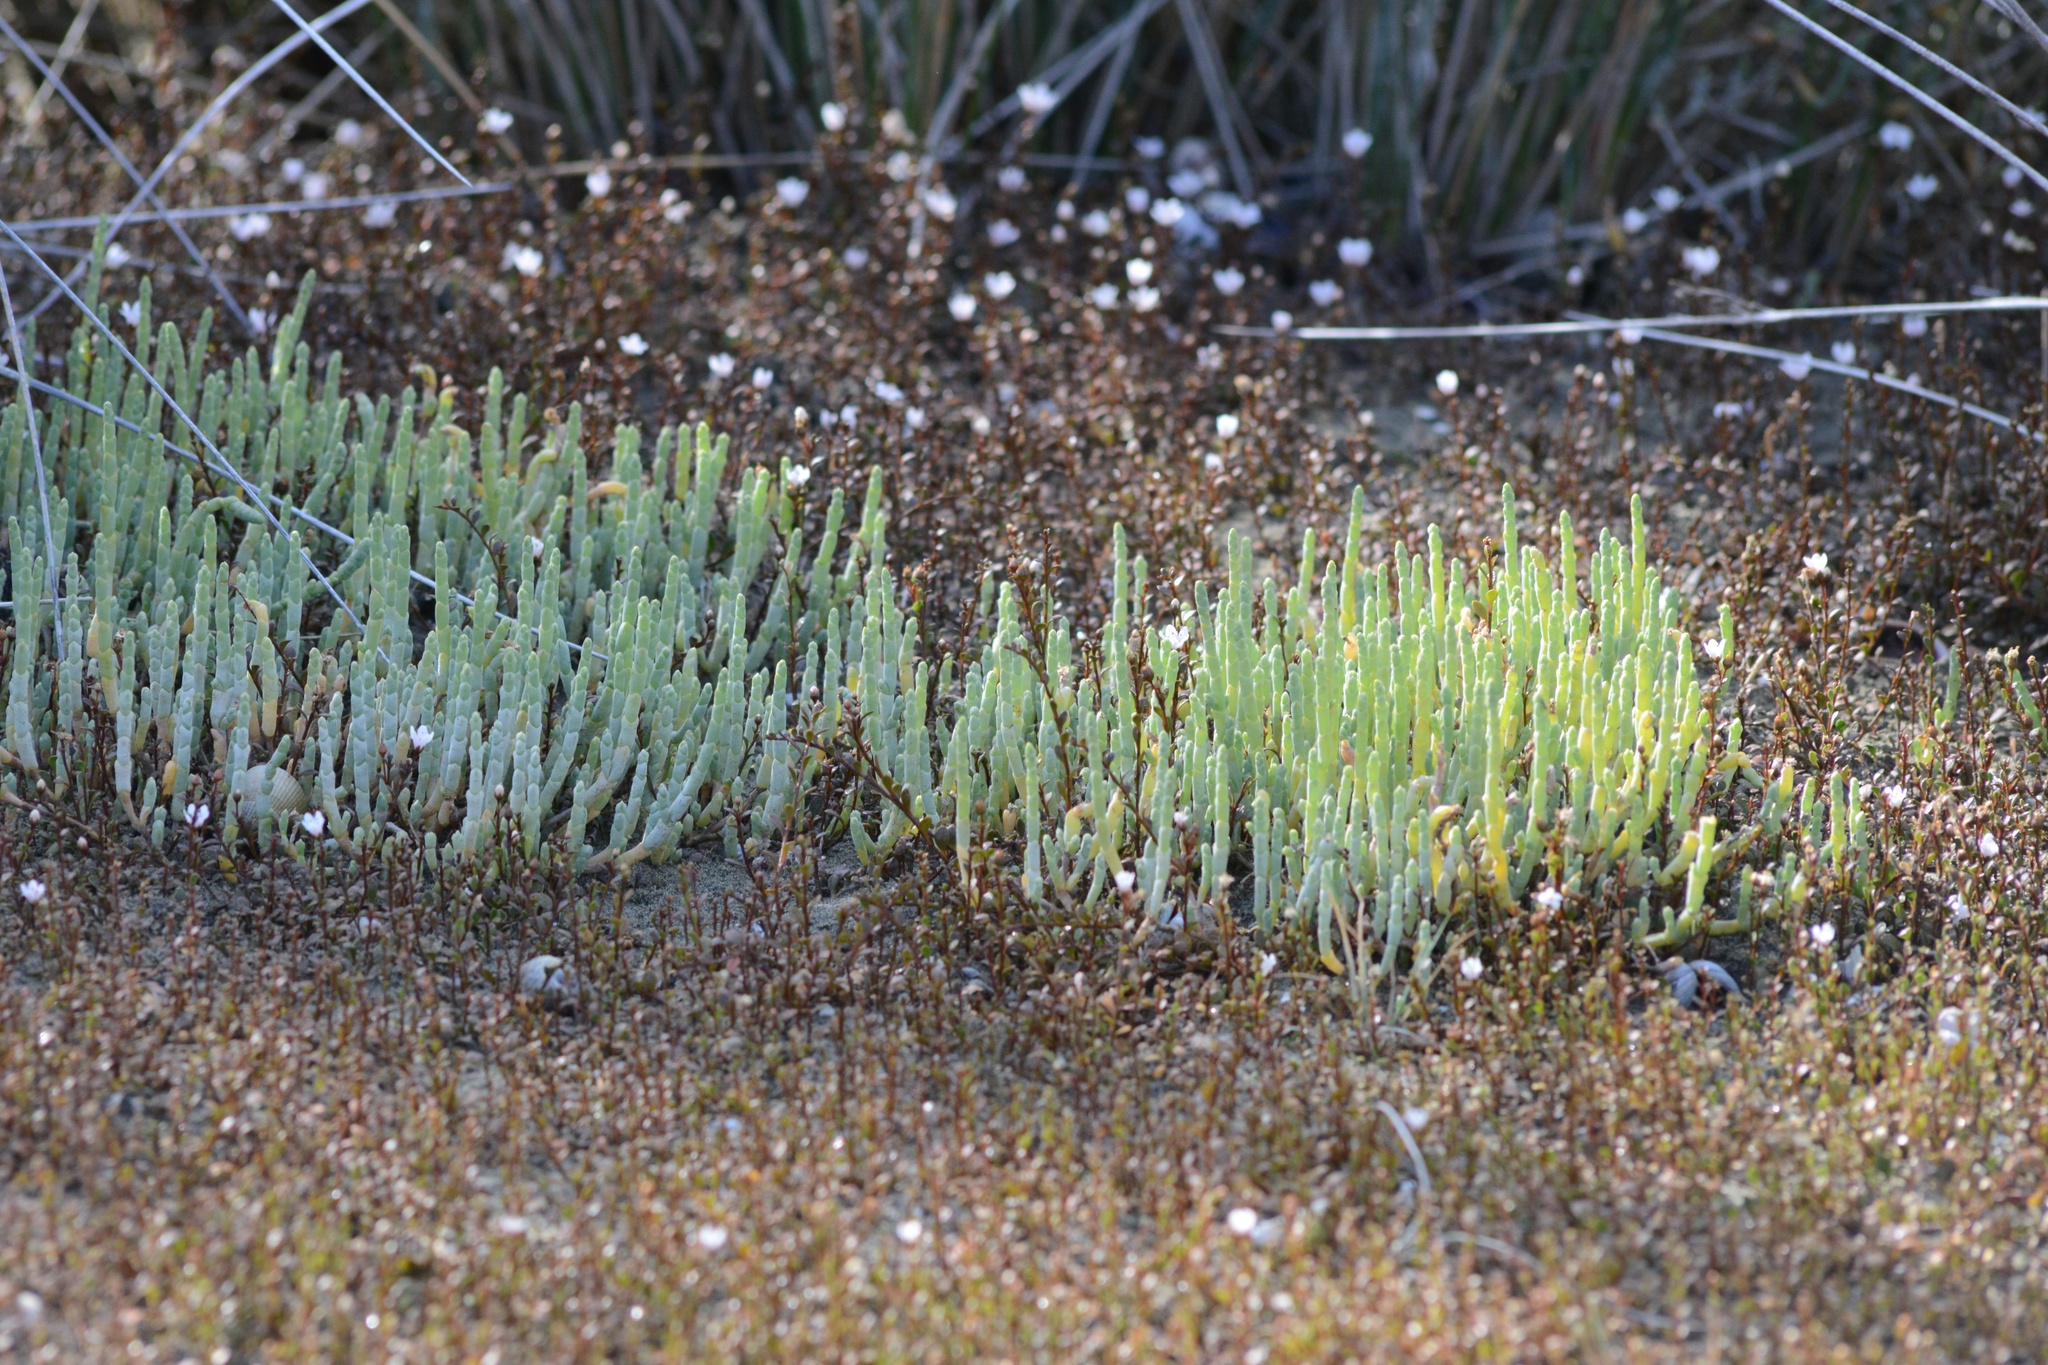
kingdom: Plantae
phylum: Tracheophyta
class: Magnoliopsida
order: Caryophyllales
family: Amaranthaceae
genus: Salicornia
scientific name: Salicornia quinqueflora
